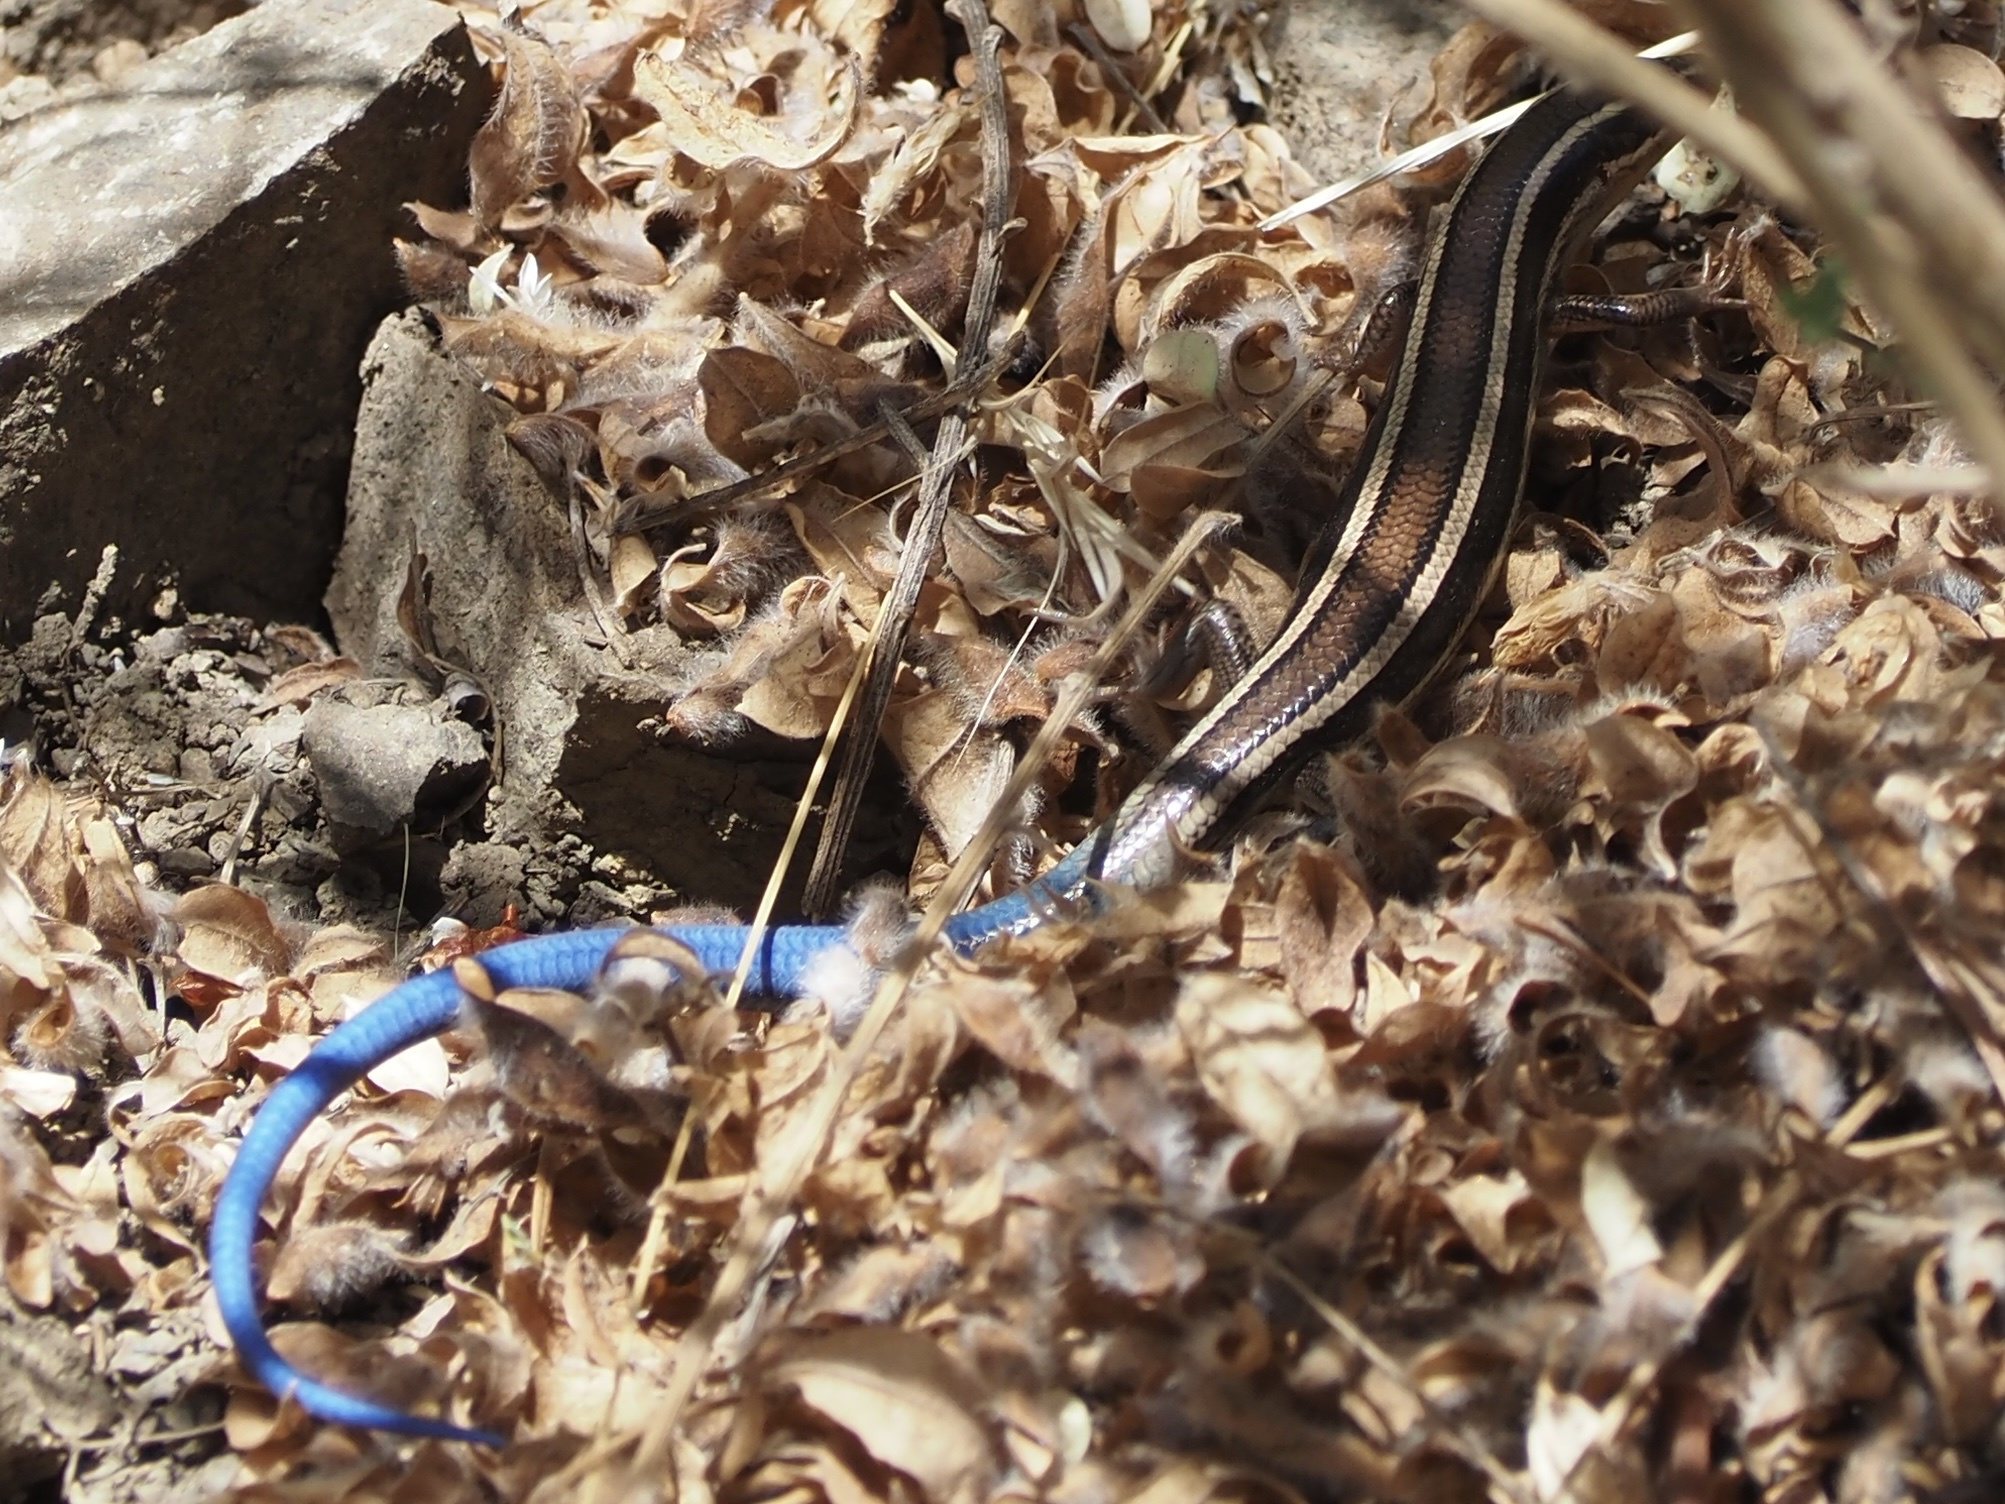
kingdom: Animalia
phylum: Chordata
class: Squamata
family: Scincidae
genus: Plestiodon
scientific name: Plestiodon skiltonianus
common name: Coronado island skink [interparietalis]
